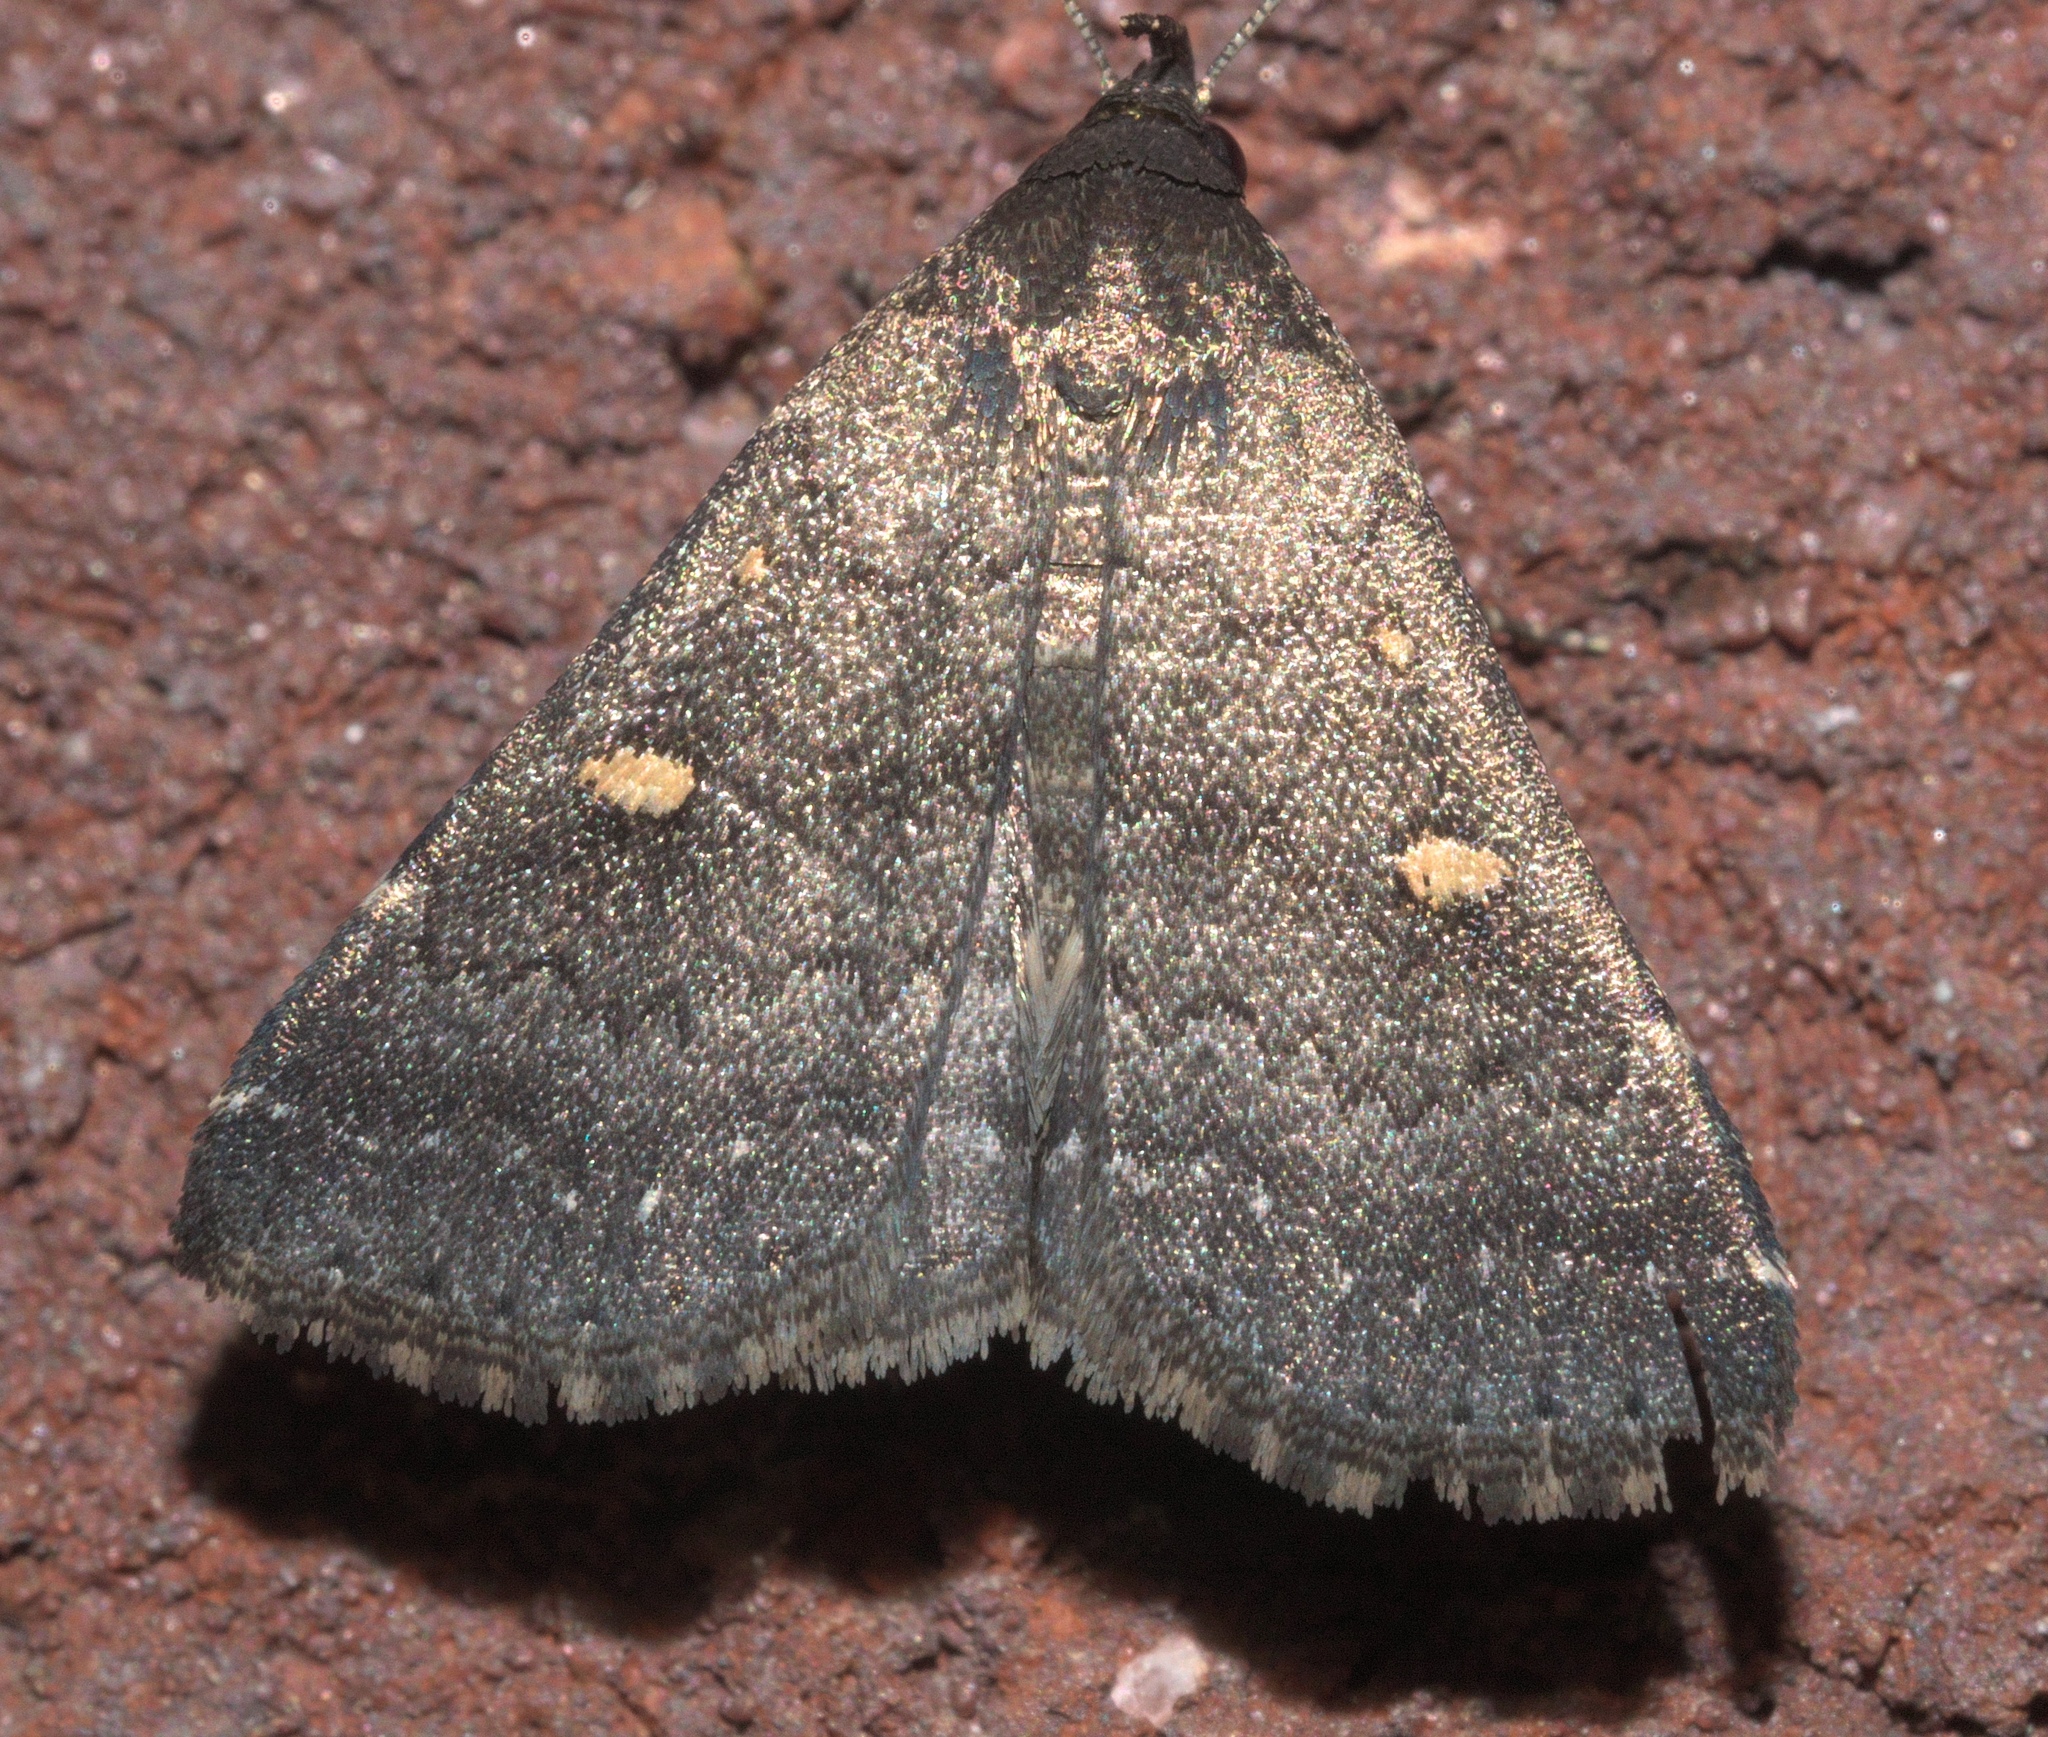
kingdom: Animalia
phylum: Arthropoda
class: Insecta
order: Lepidoptera
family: Erebidae
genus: Tetanolita
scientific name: Tetanolita mynesalis
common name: Smoky tetanolita moth
